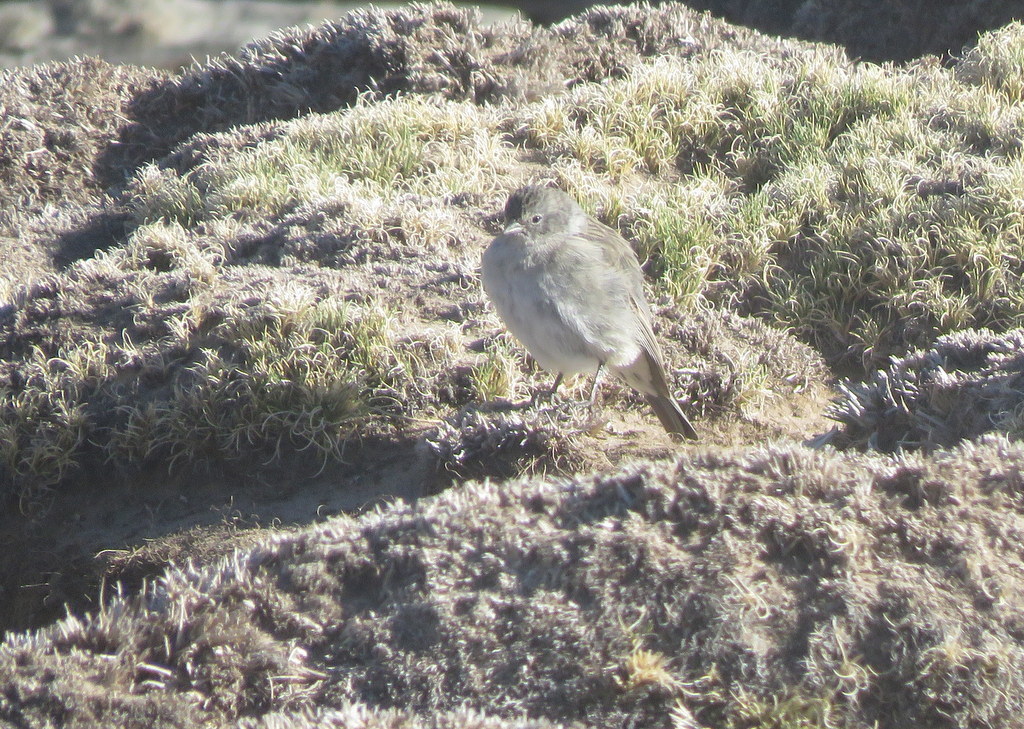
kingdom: Animalia
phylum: Chordata
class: Aves
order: Passeriformes
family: Thraupidae
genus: Geospizopsis
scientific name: Geospizopsis plebejus
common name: Ash-breasted sierra-finch
